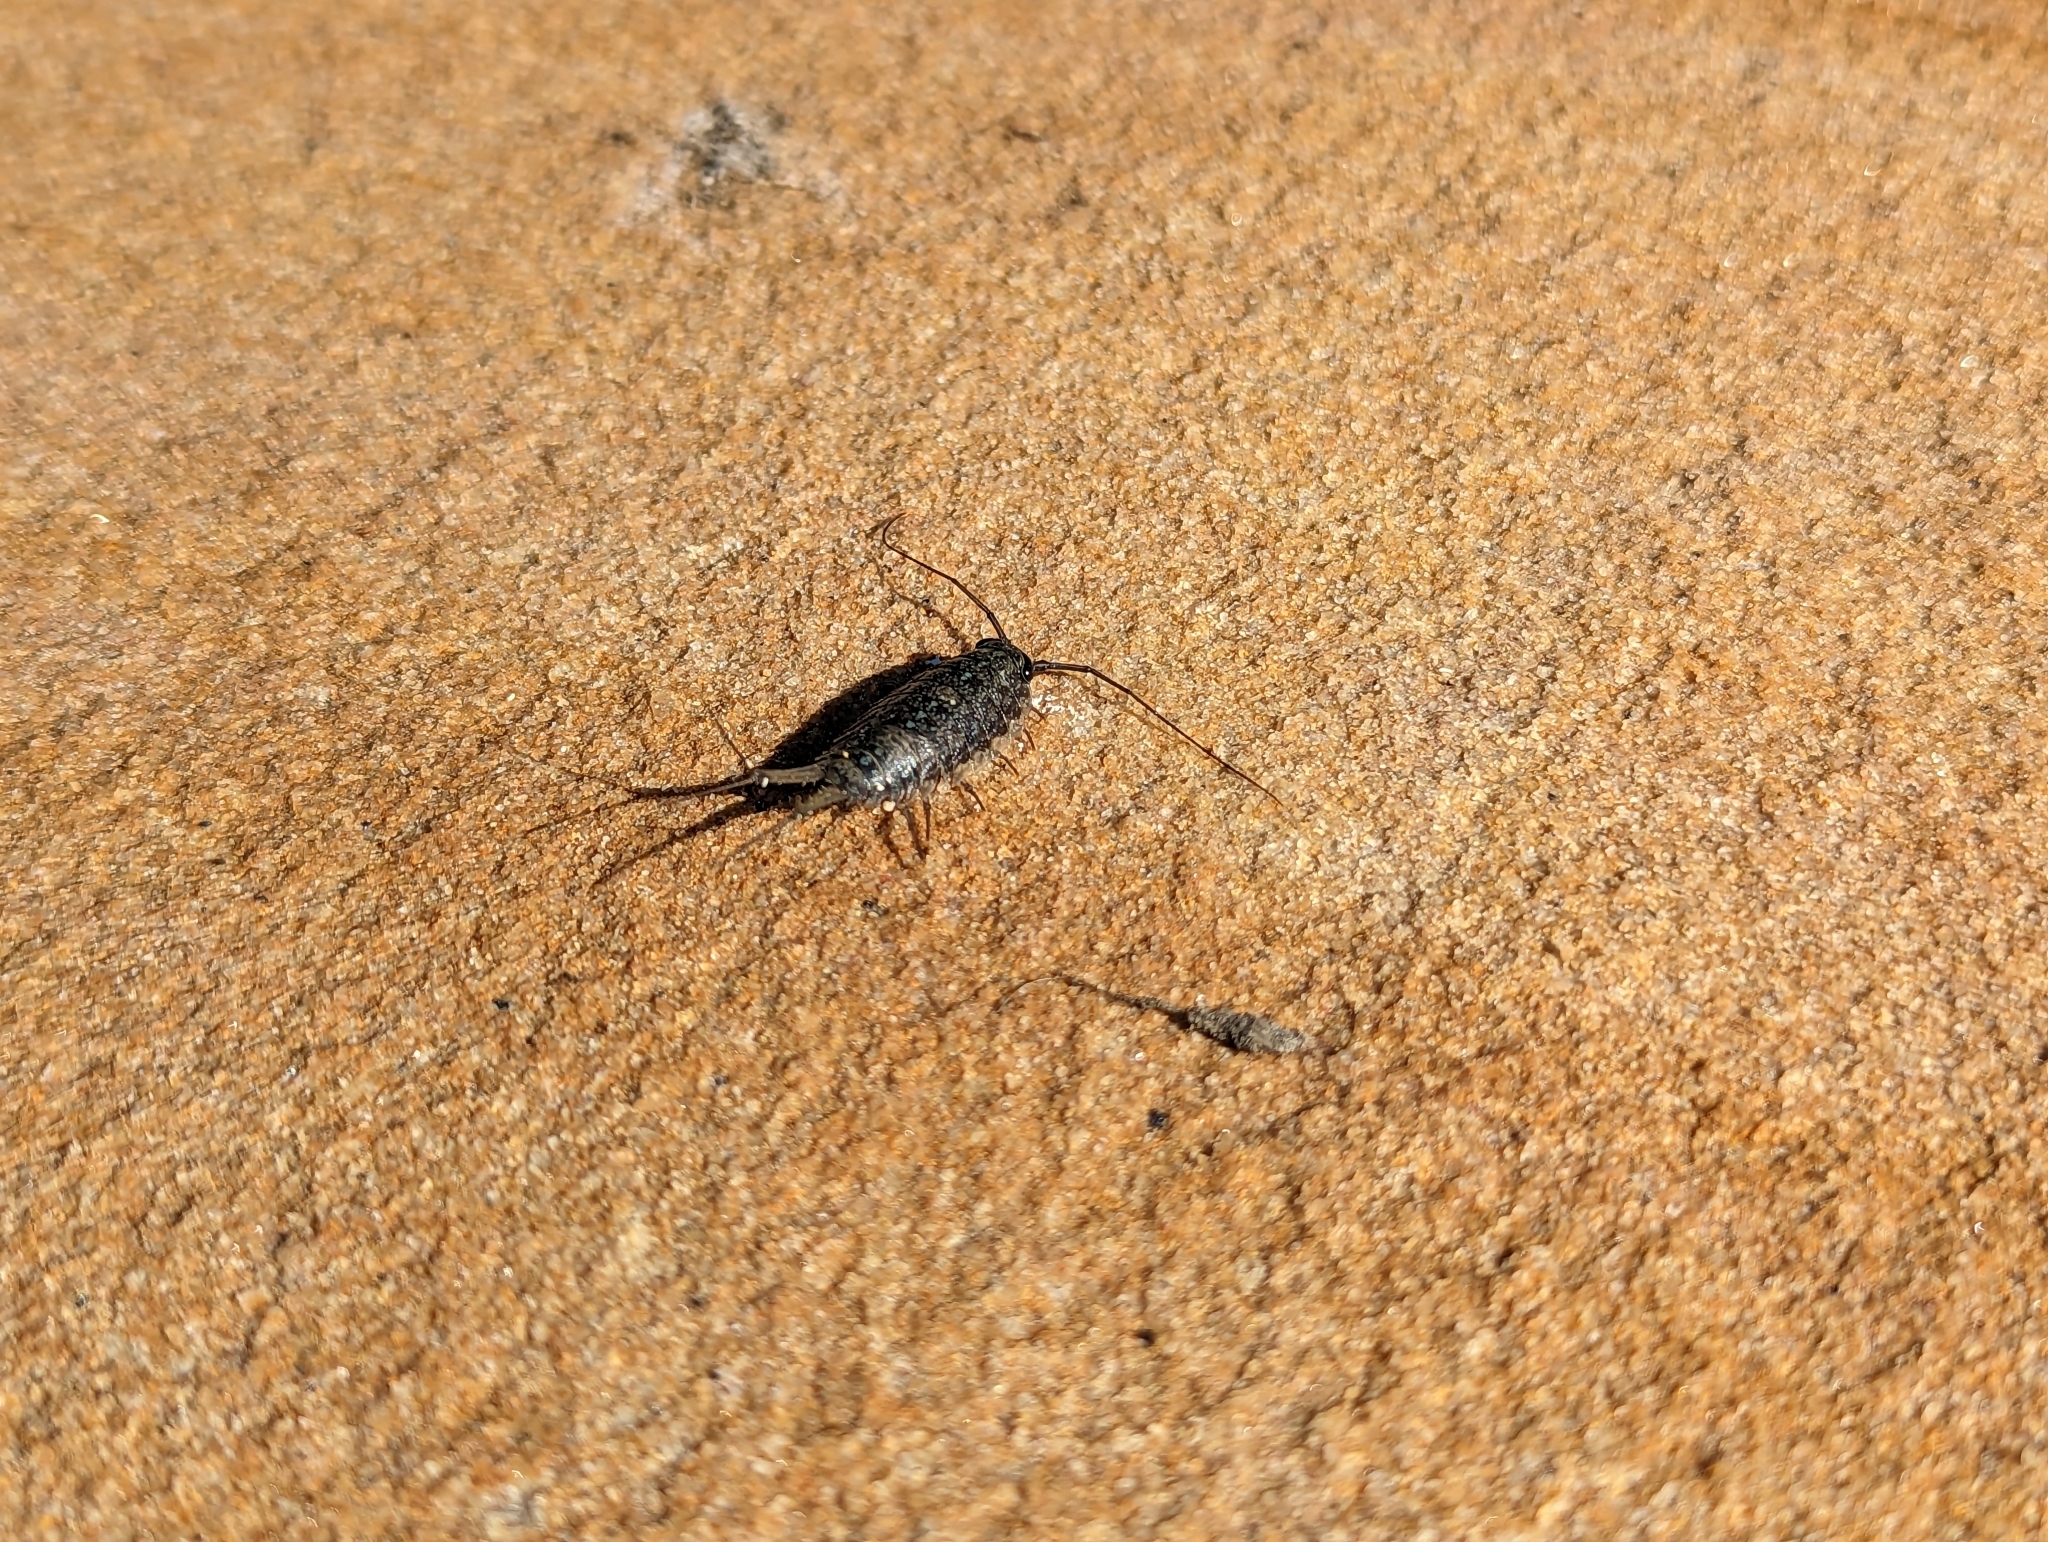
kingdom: Animalia
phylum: Arthropoda
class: Malacostraca
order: Isopoda
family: Ligiidae
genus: Ligia
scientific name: Ligia exotica
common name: Wharf roach
